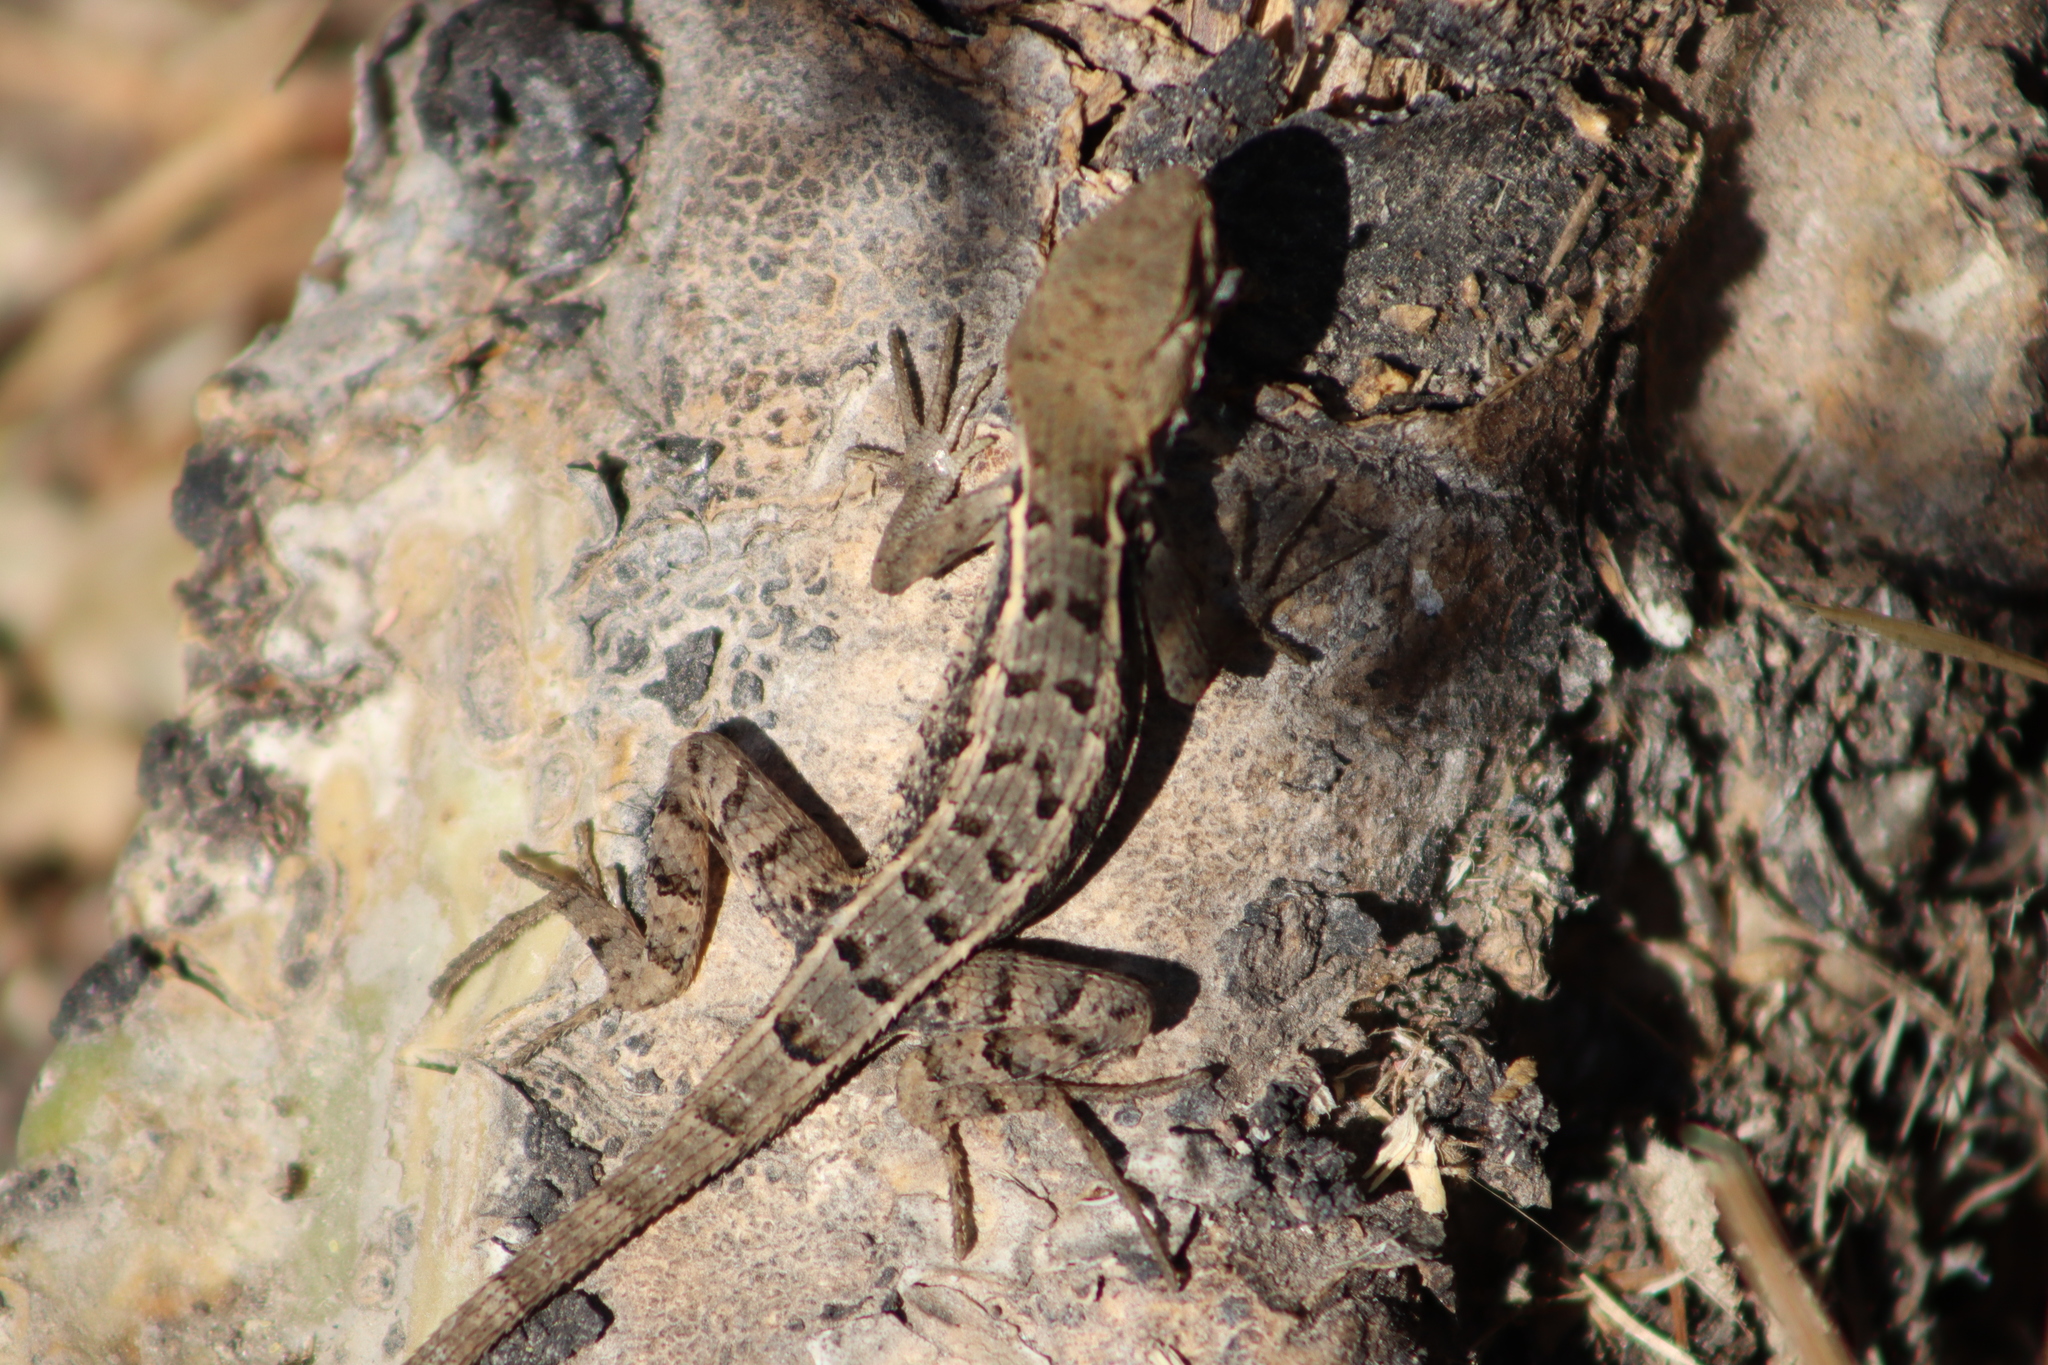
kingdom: Animalia
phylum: Chordata
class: Squamata
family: Phrynosomatidae
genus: Sceloporus
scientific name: Sceloporus utiformis
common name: Antesator
